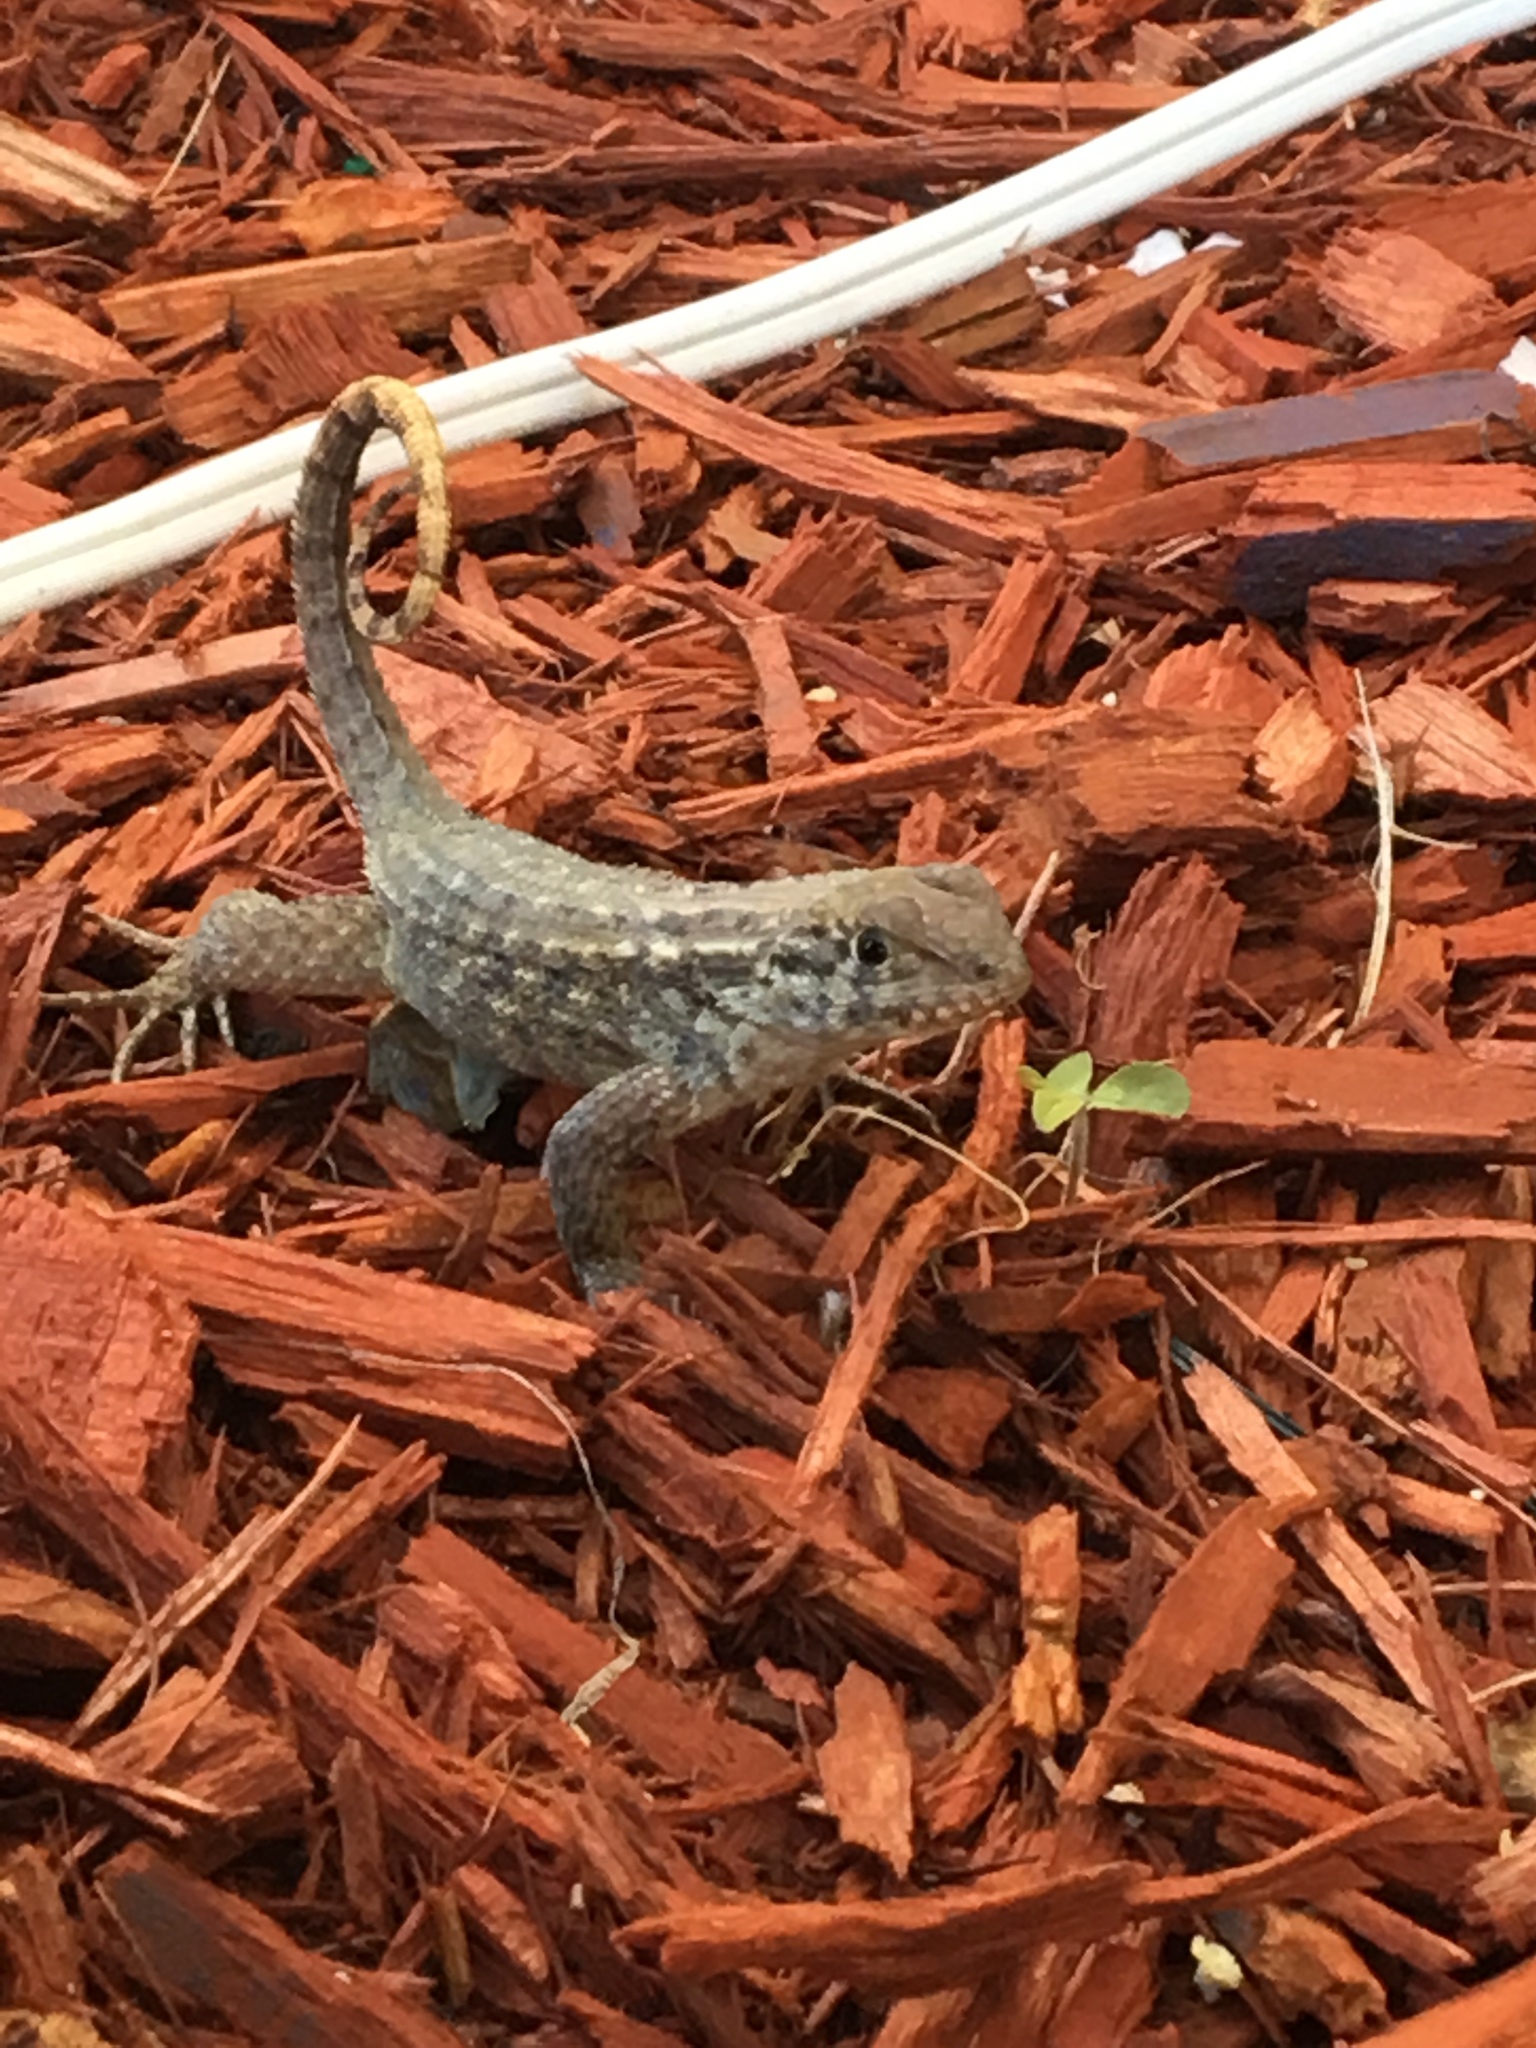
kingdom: Animalia
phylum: Chordata
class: Squamata
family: Leiocephalidae
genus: Leiocephalus
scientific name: Leiocephalus carinatus
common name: Northern curly-tailed lizard
